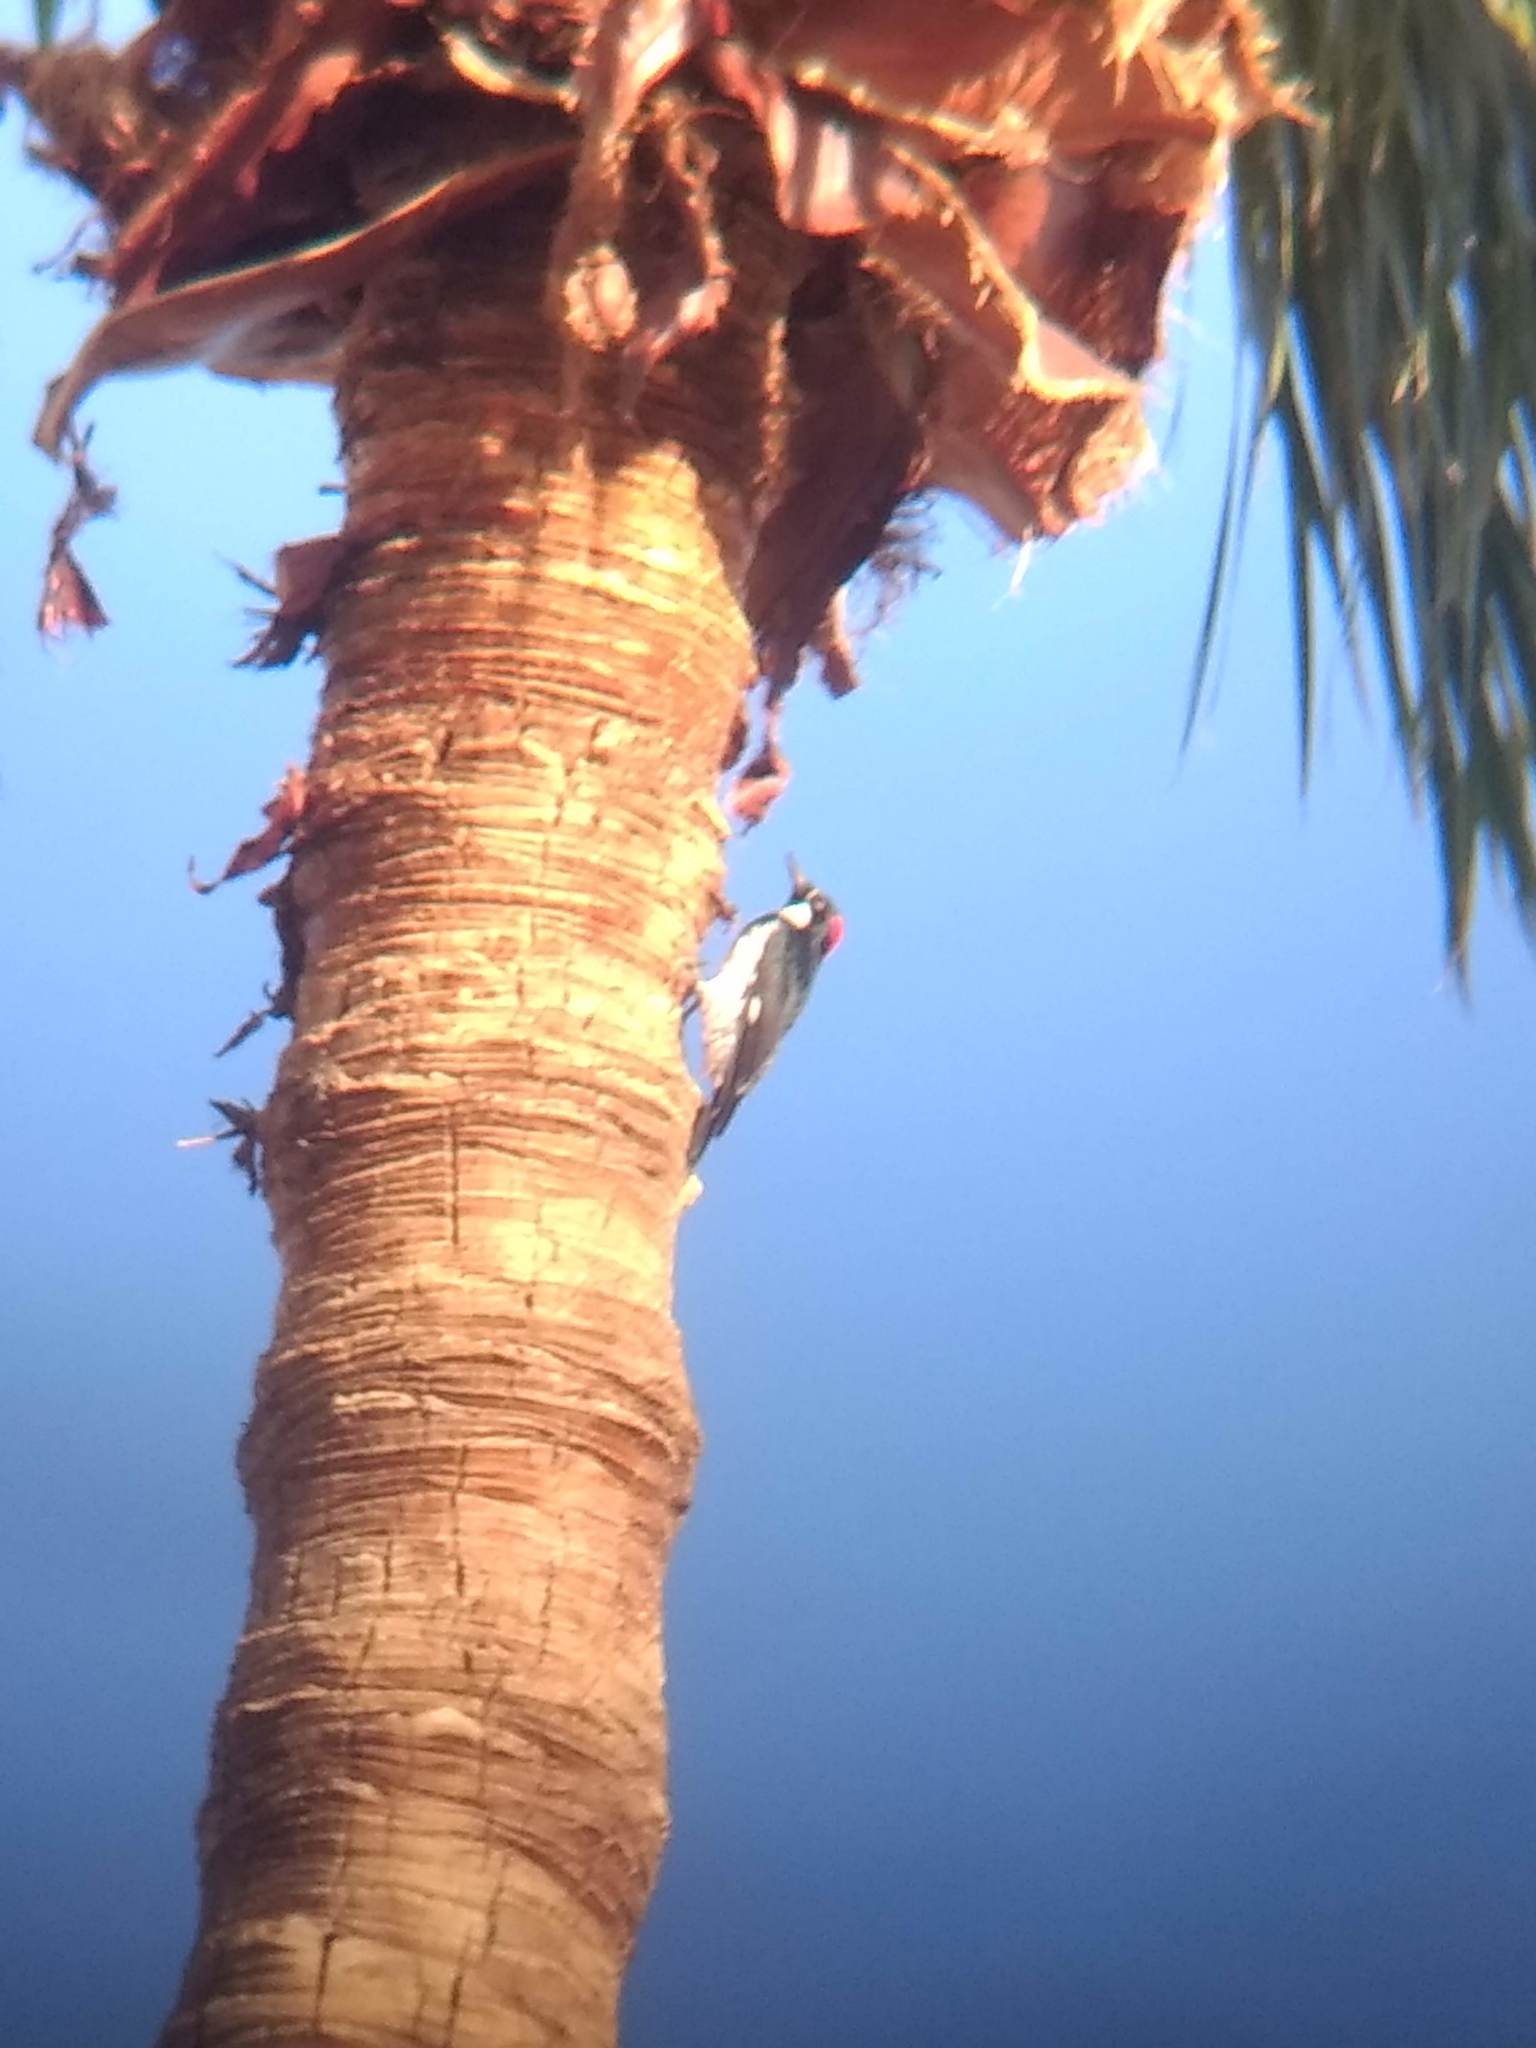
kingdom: Animalia
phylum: Chordata
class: Aves
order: Piciformes
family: Picidae
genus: Melanerpes
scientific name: Melanerpes formicivorus
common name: Acorn woodpecker
